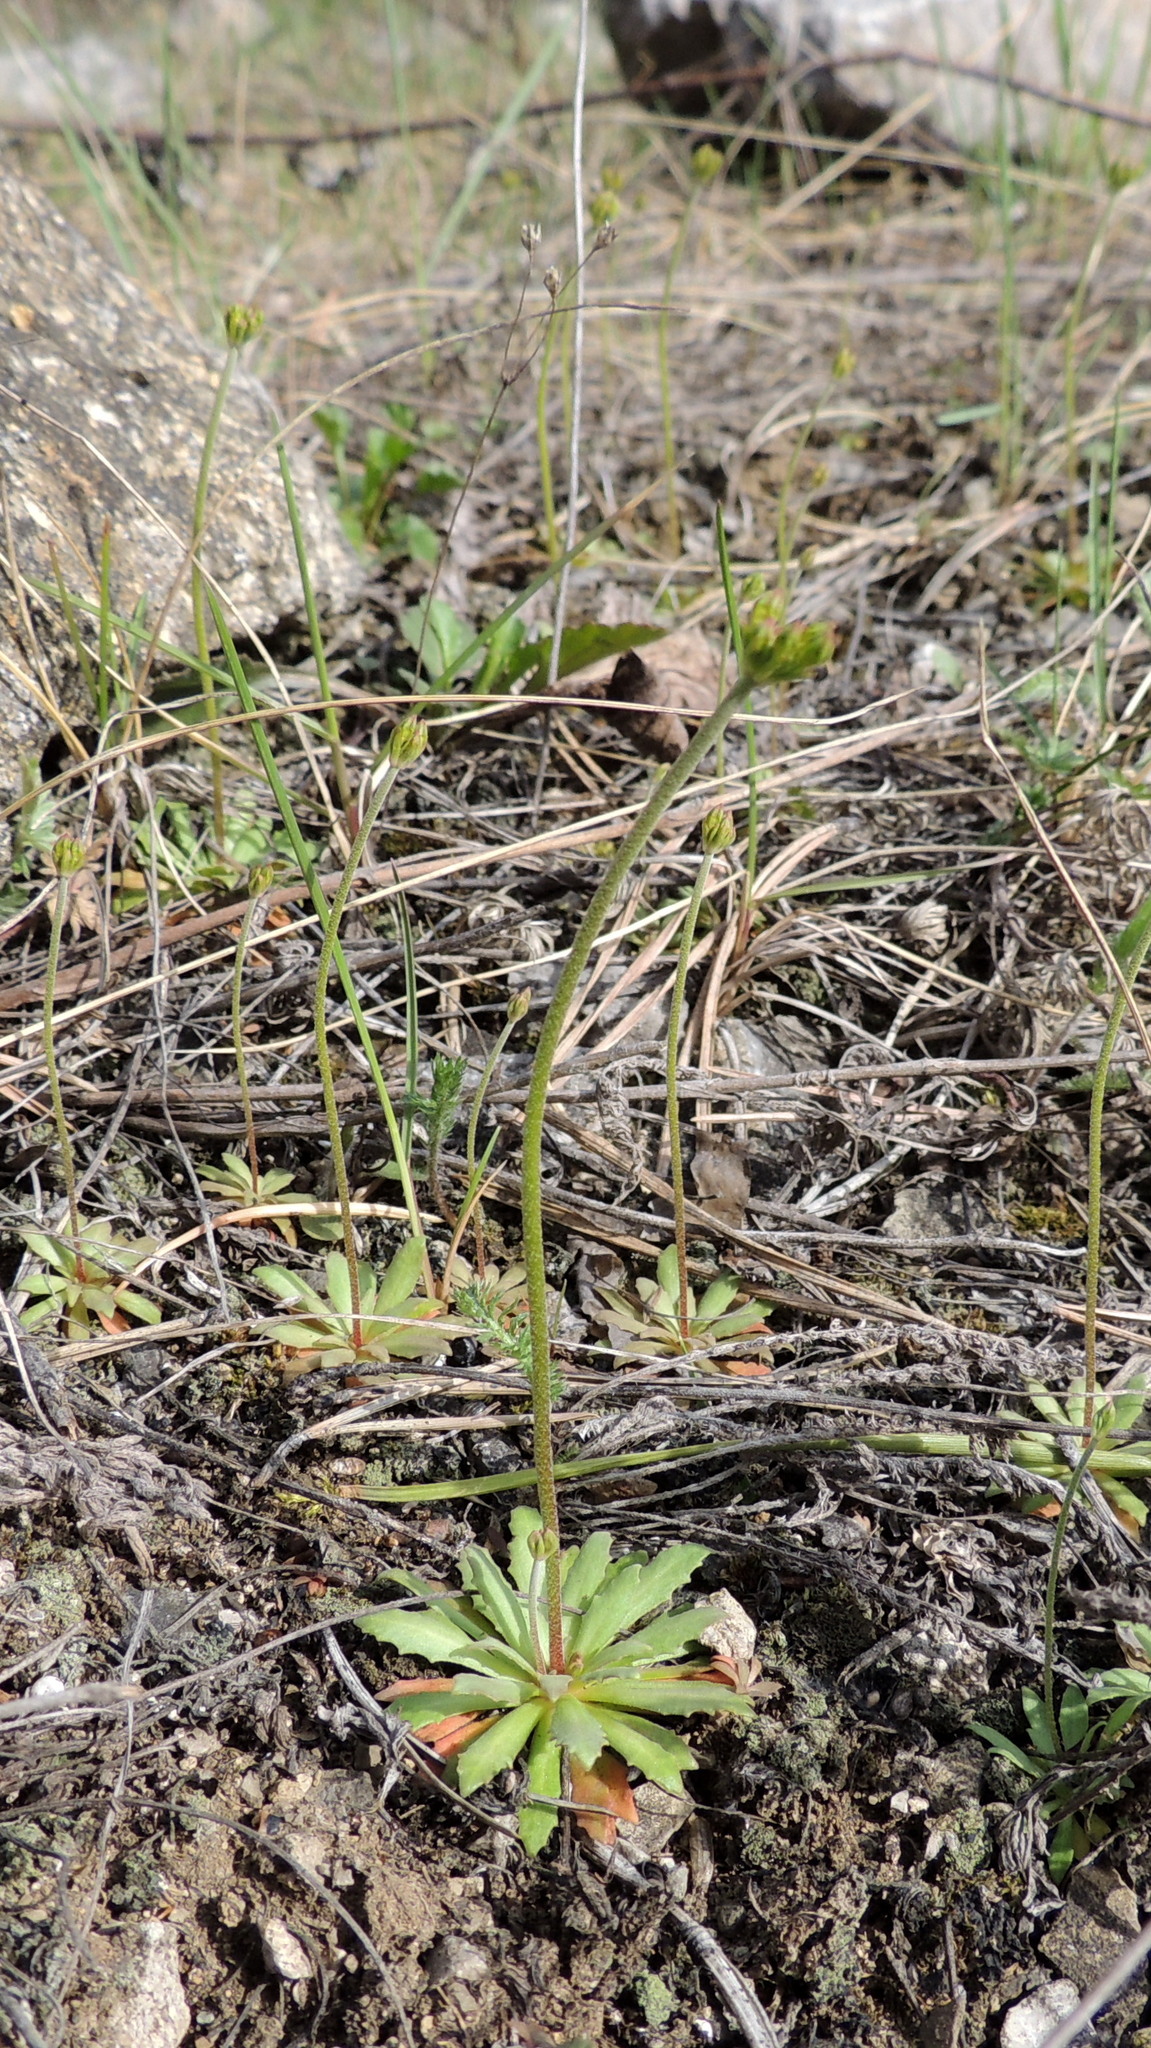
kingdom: Plantae
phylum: Tracheophyta
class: Magnoliopsida
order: Ericales
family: Primulaceae
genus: Androsace
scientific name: Androsace septentrionalis
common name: Hairy northern fairy-candelabra
